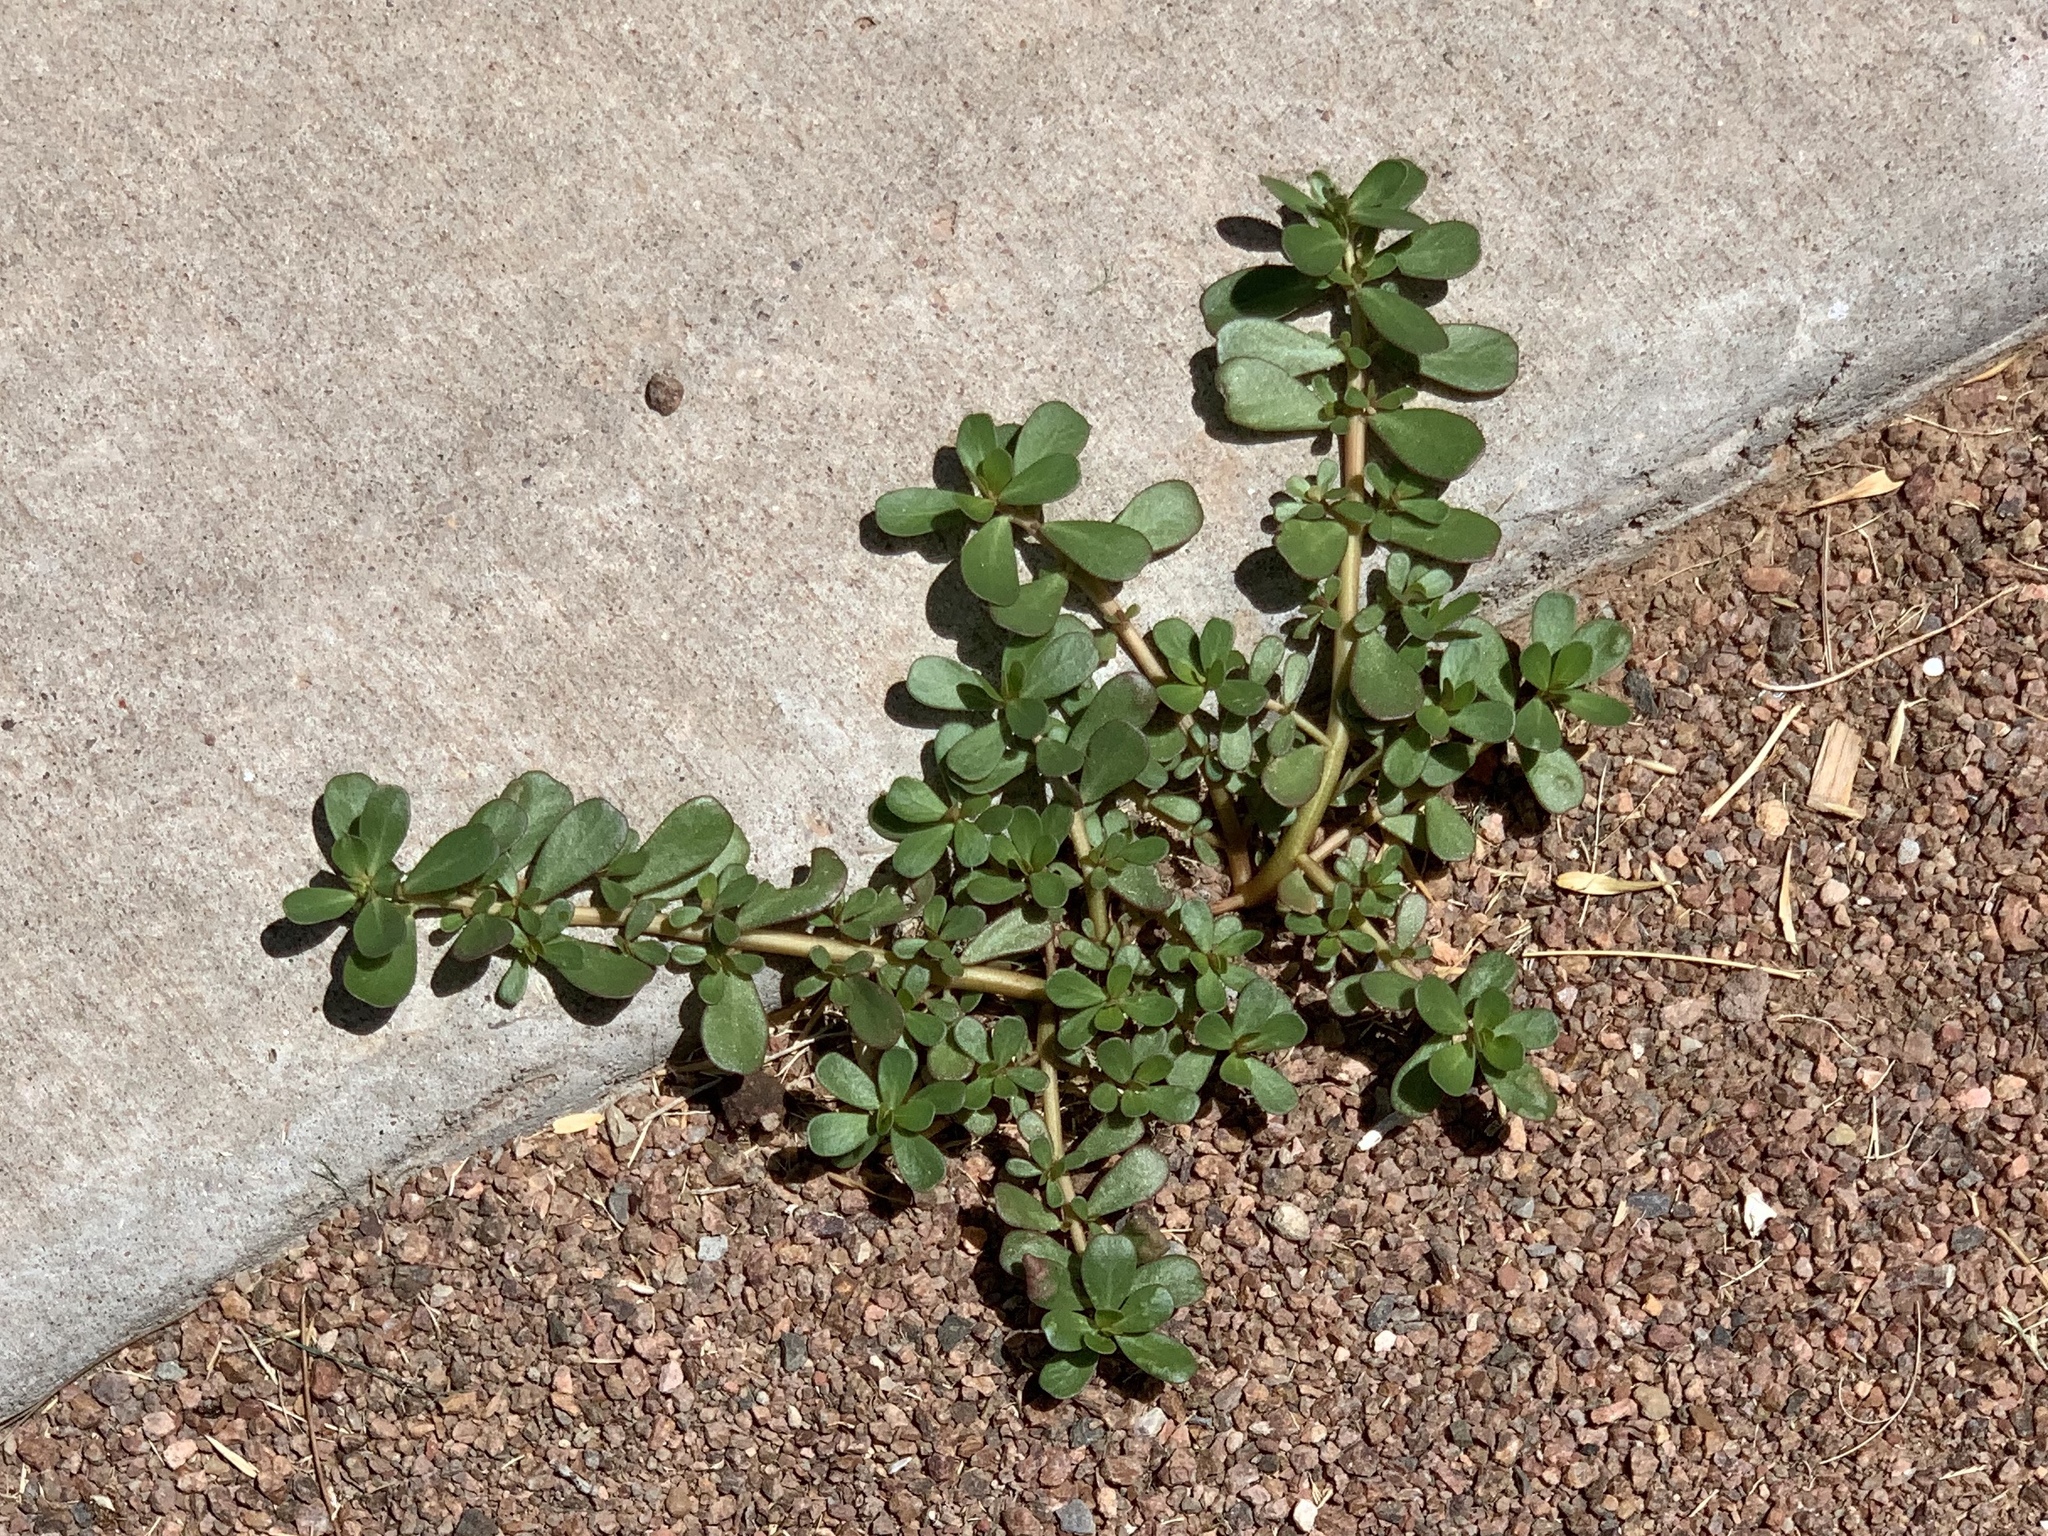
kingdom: Plantae
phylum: Tracheophyta
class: Magnoliopsida
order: Caryophyllales
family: Portulacaceae
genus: Portulaca
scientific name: Portulaca oleracea
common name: Common purslane
